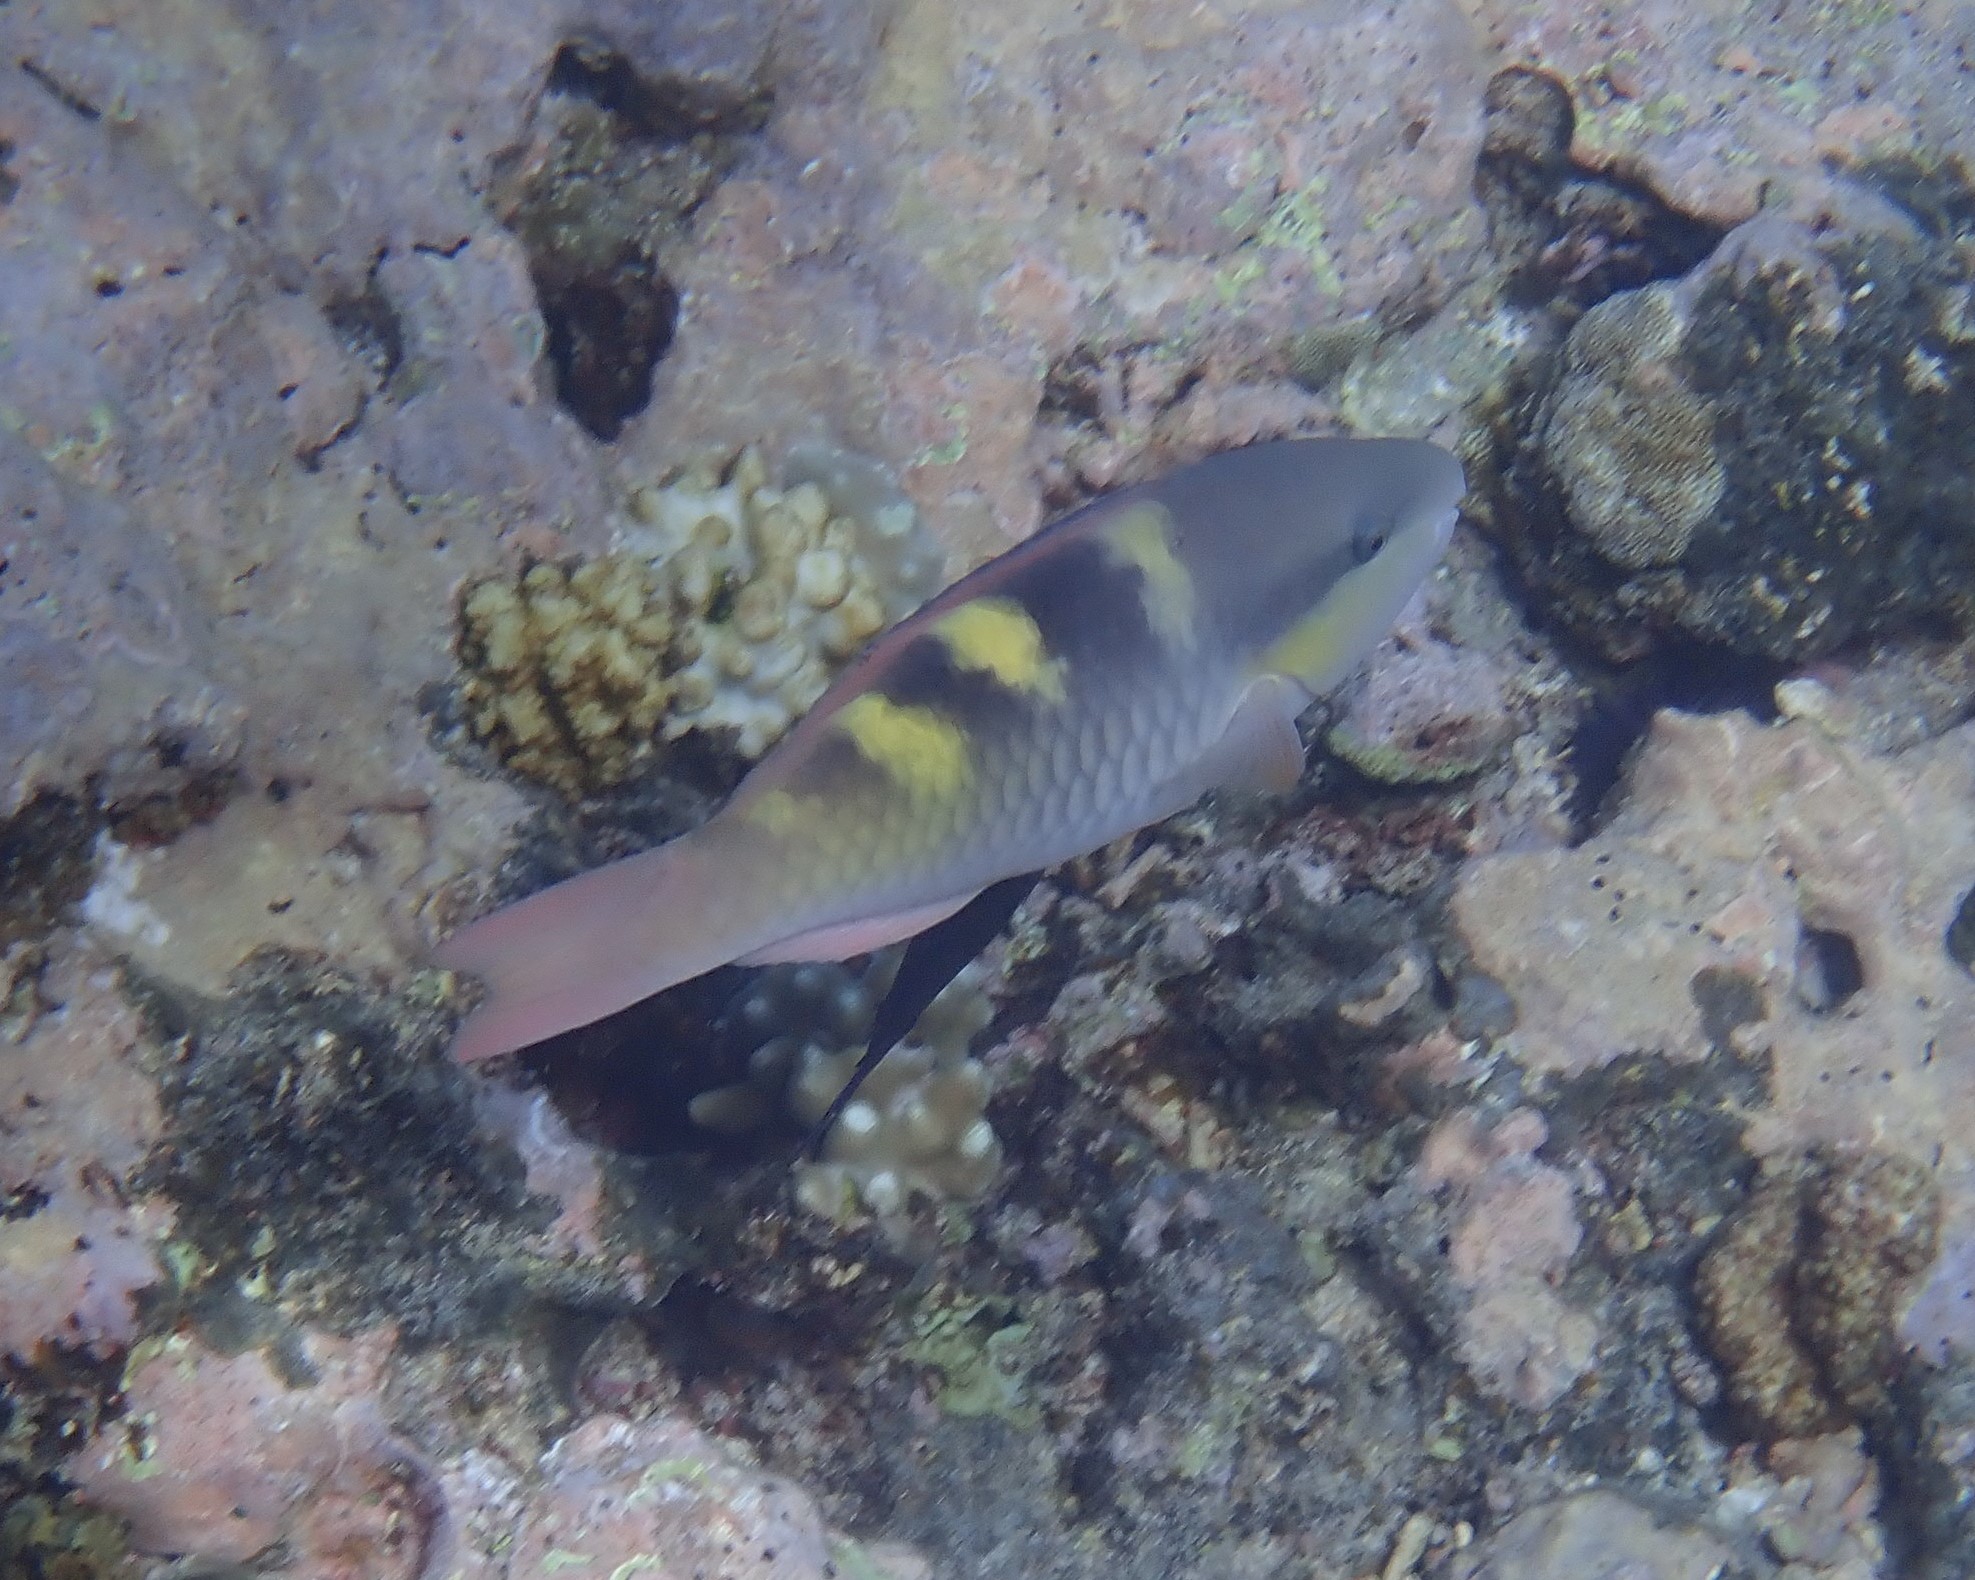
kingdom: Animalia
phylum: Chordata
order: Perciformes
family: Scaridae
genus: Scarus
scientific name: Scarus scaber
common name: Dusky-capped parrotfish
